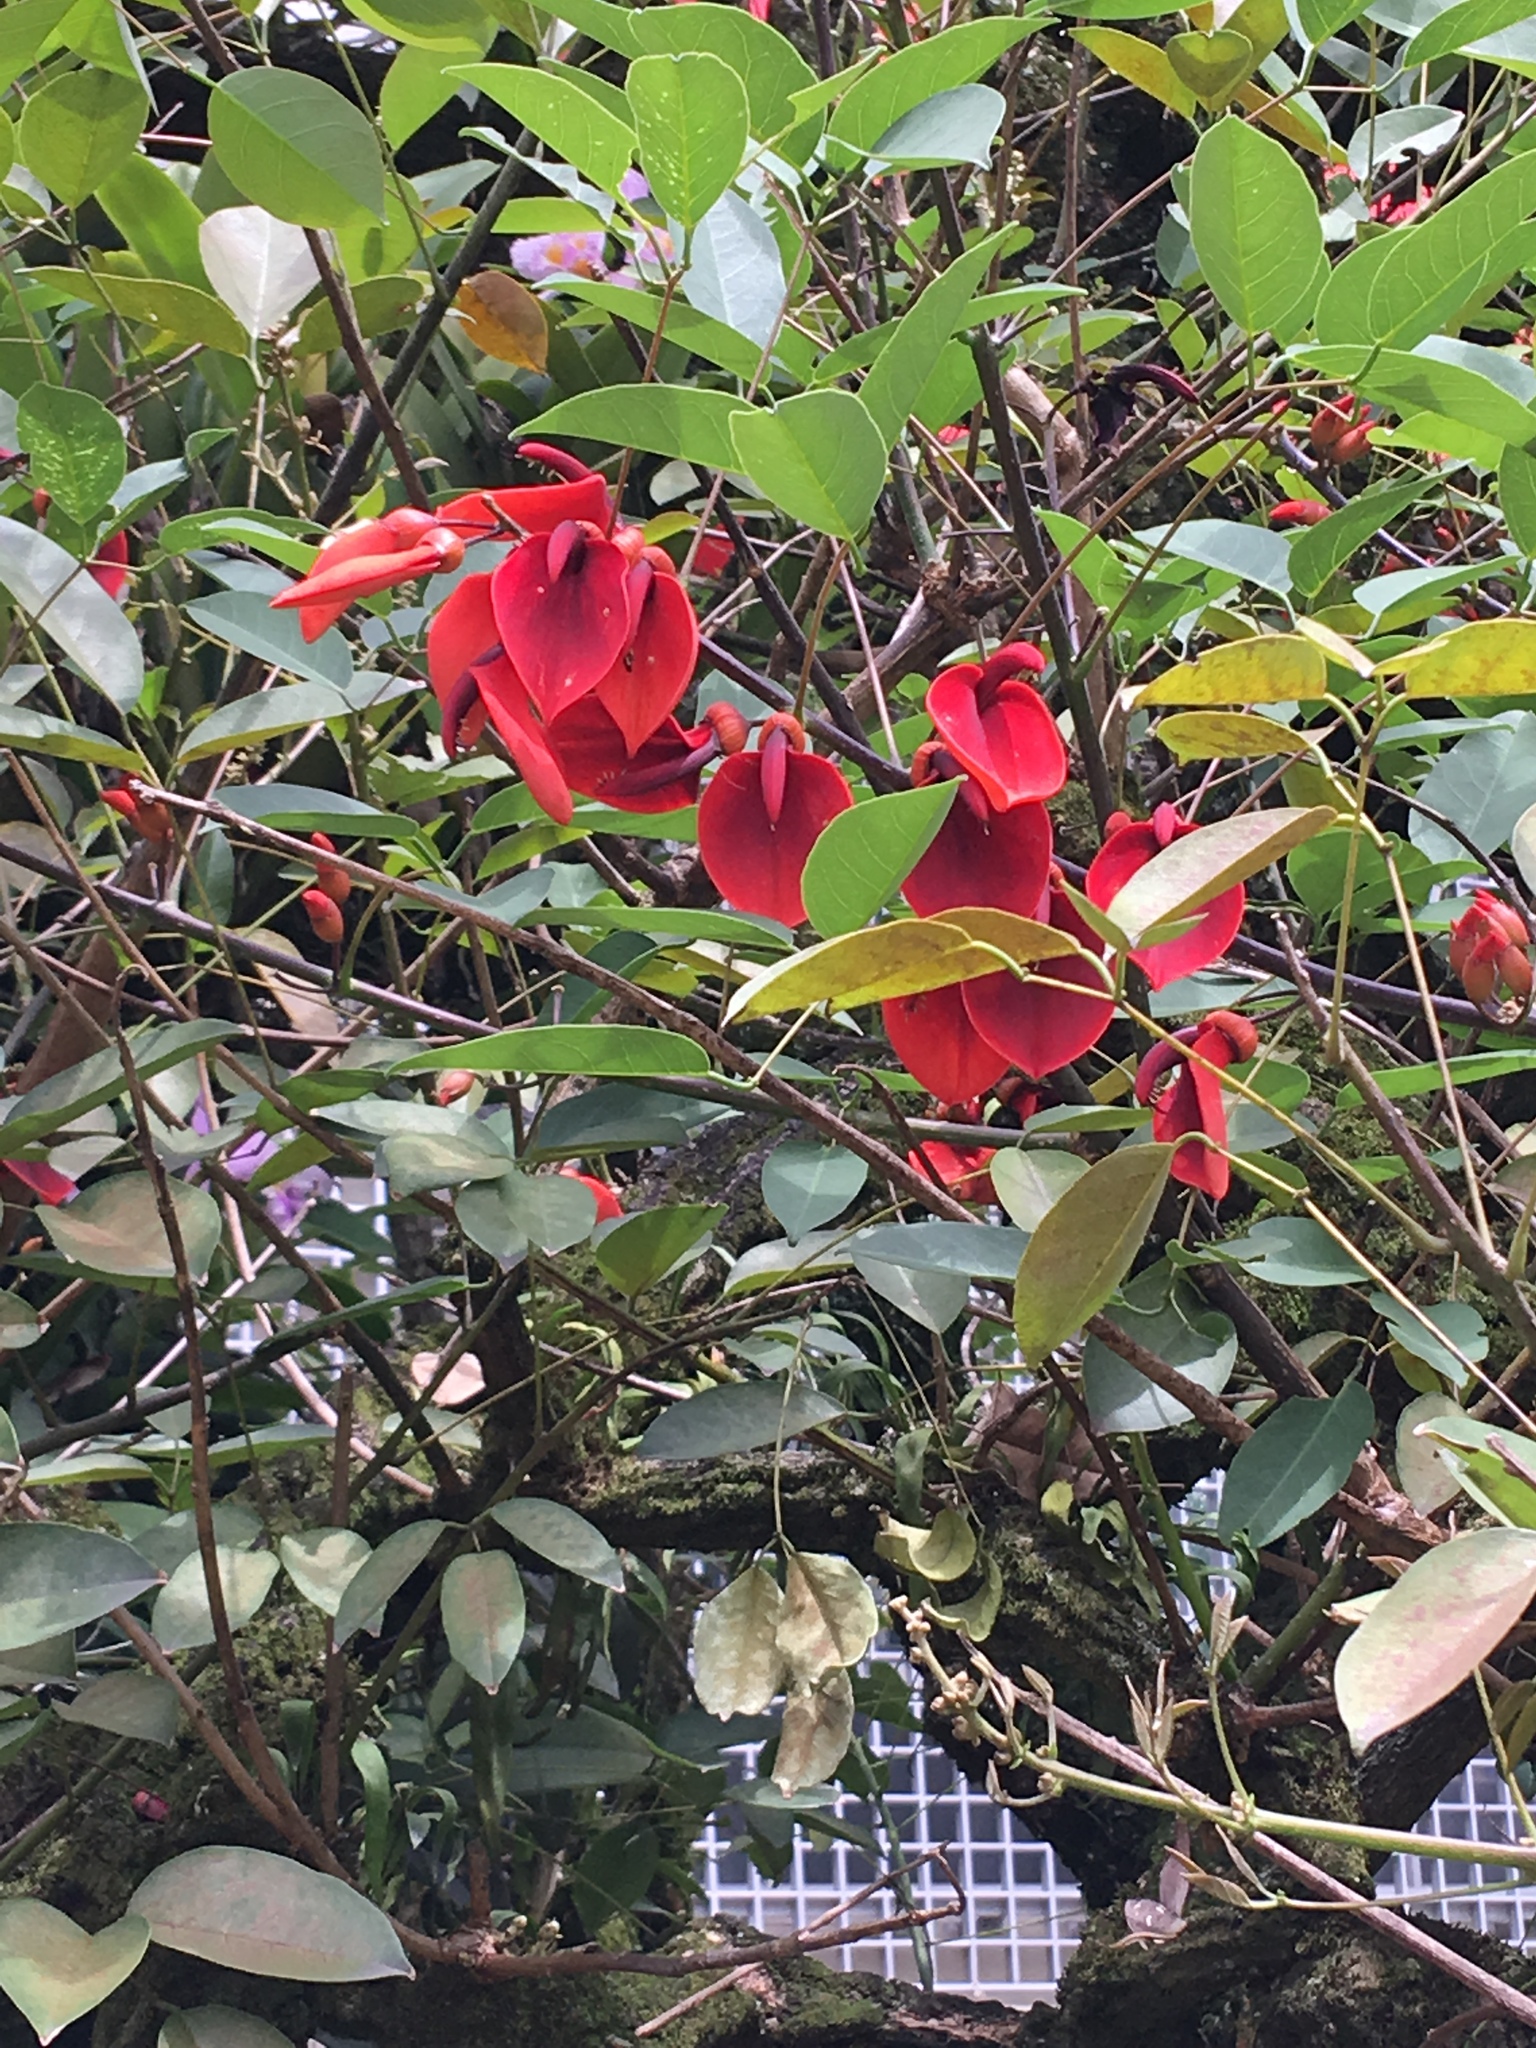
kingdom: Plantae
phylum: Tracheophyta
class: Magnoliopsida
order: Fabales
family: Fabaceae
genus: Erythrina
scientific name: Erythrina crista-galli
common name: Cockspur coral tree
